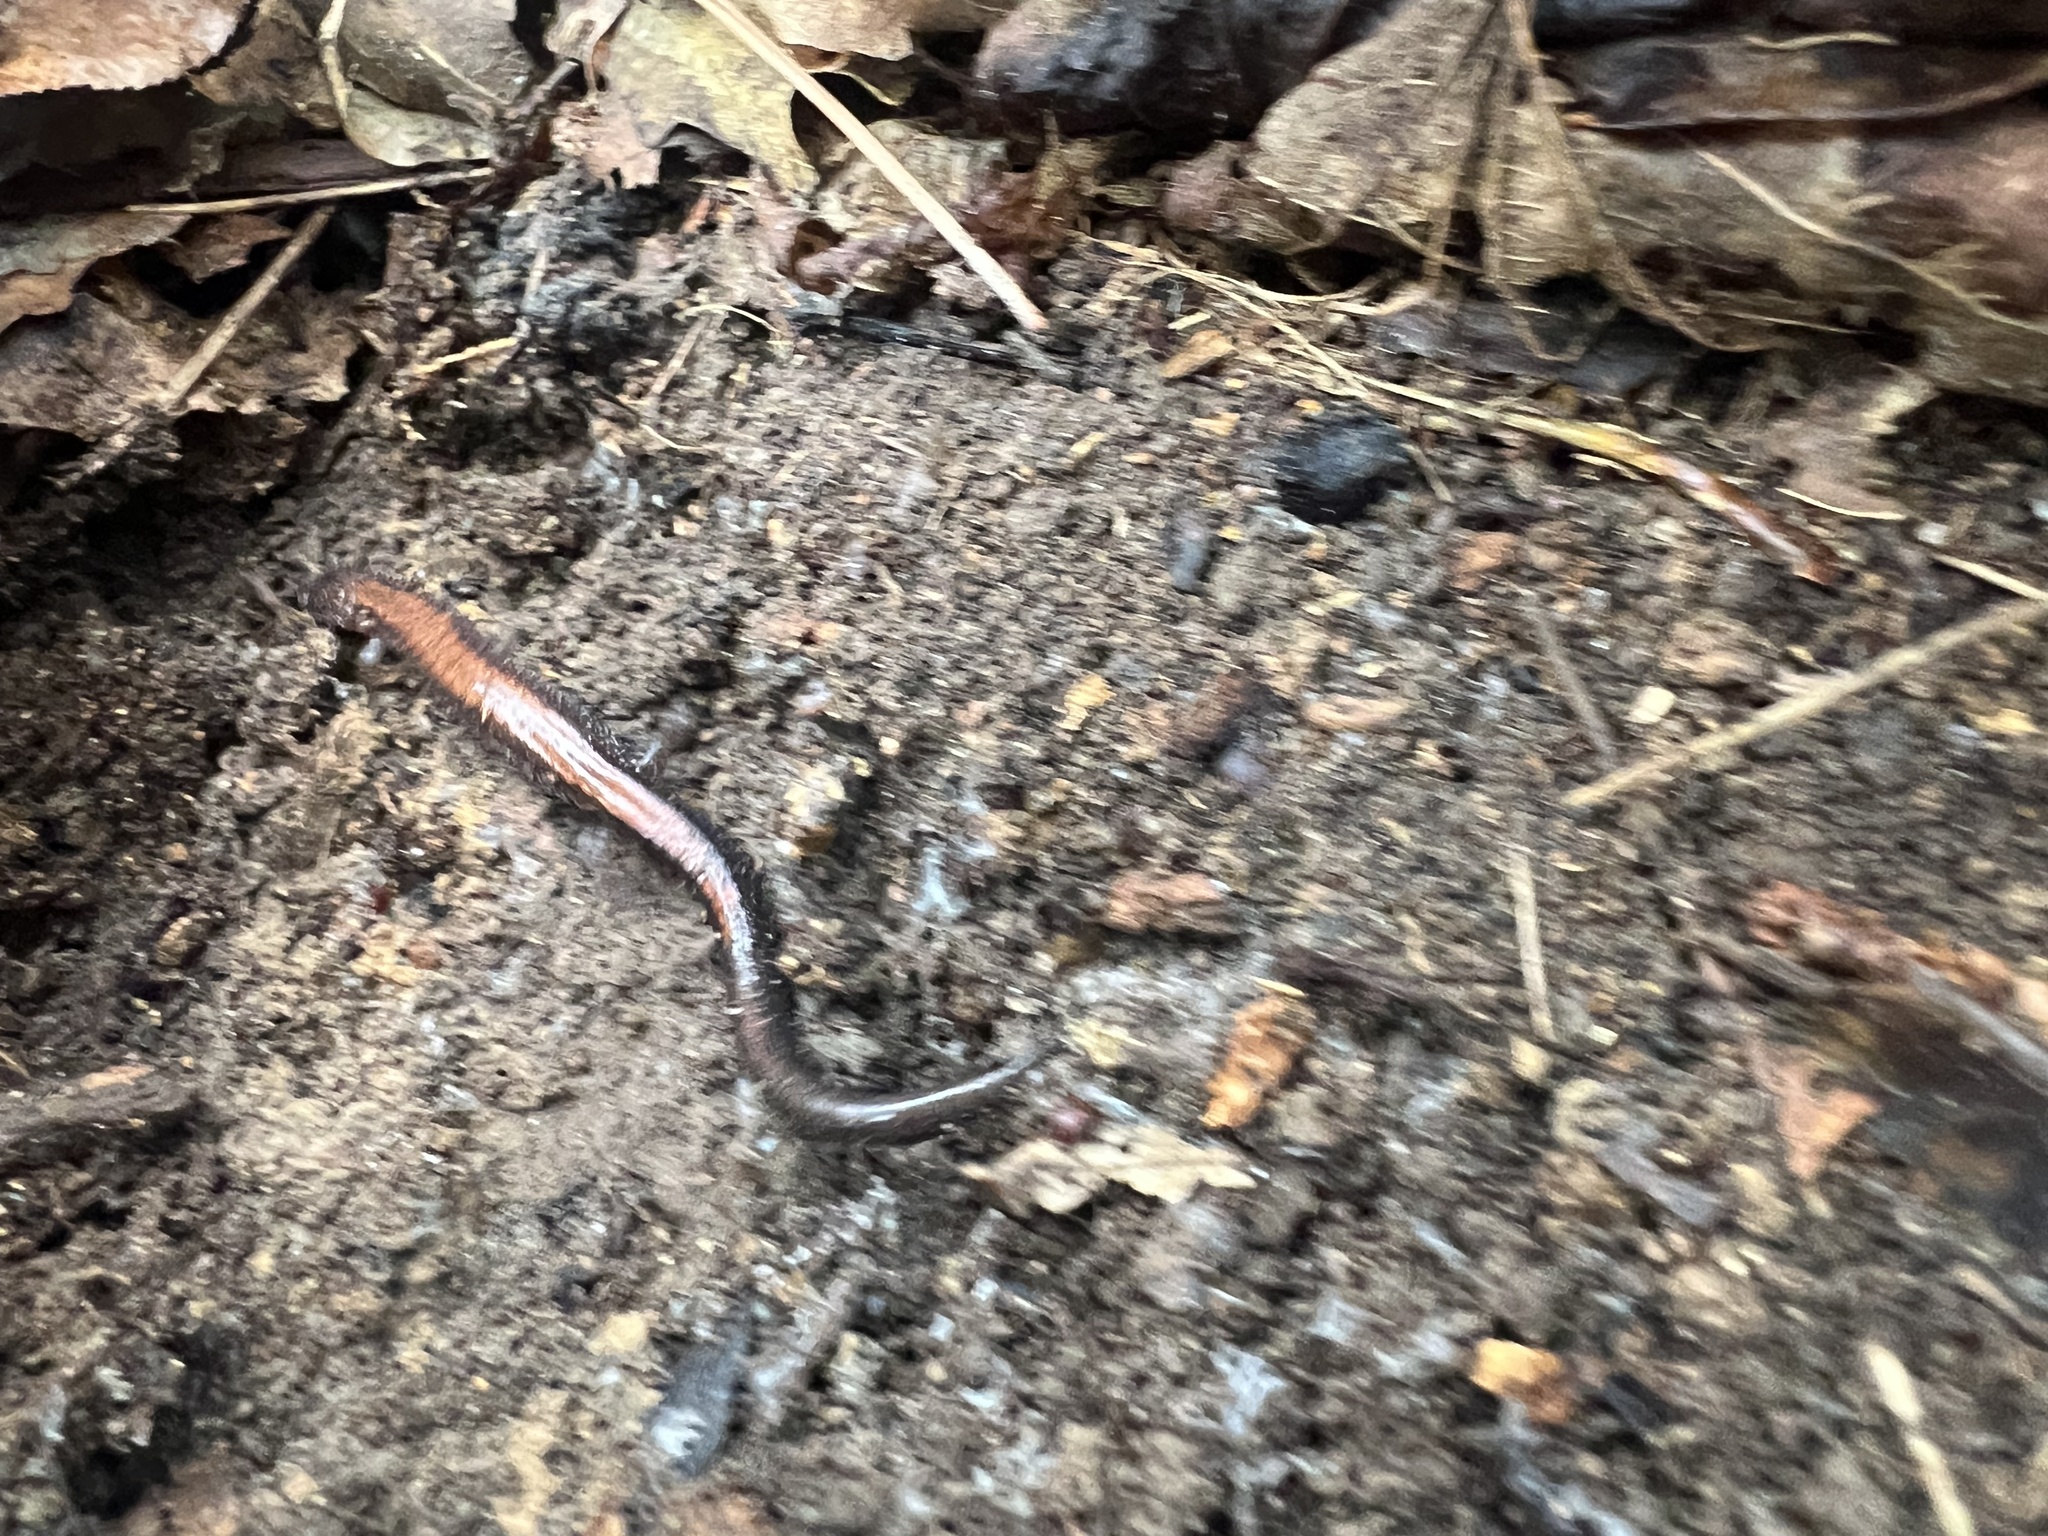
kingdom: Animalia
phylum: Chordata
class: Amphibia
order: Caudata
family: Plethodontidae
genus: Plethodon
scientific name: Plethodon cinereus
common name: Redback salamander
